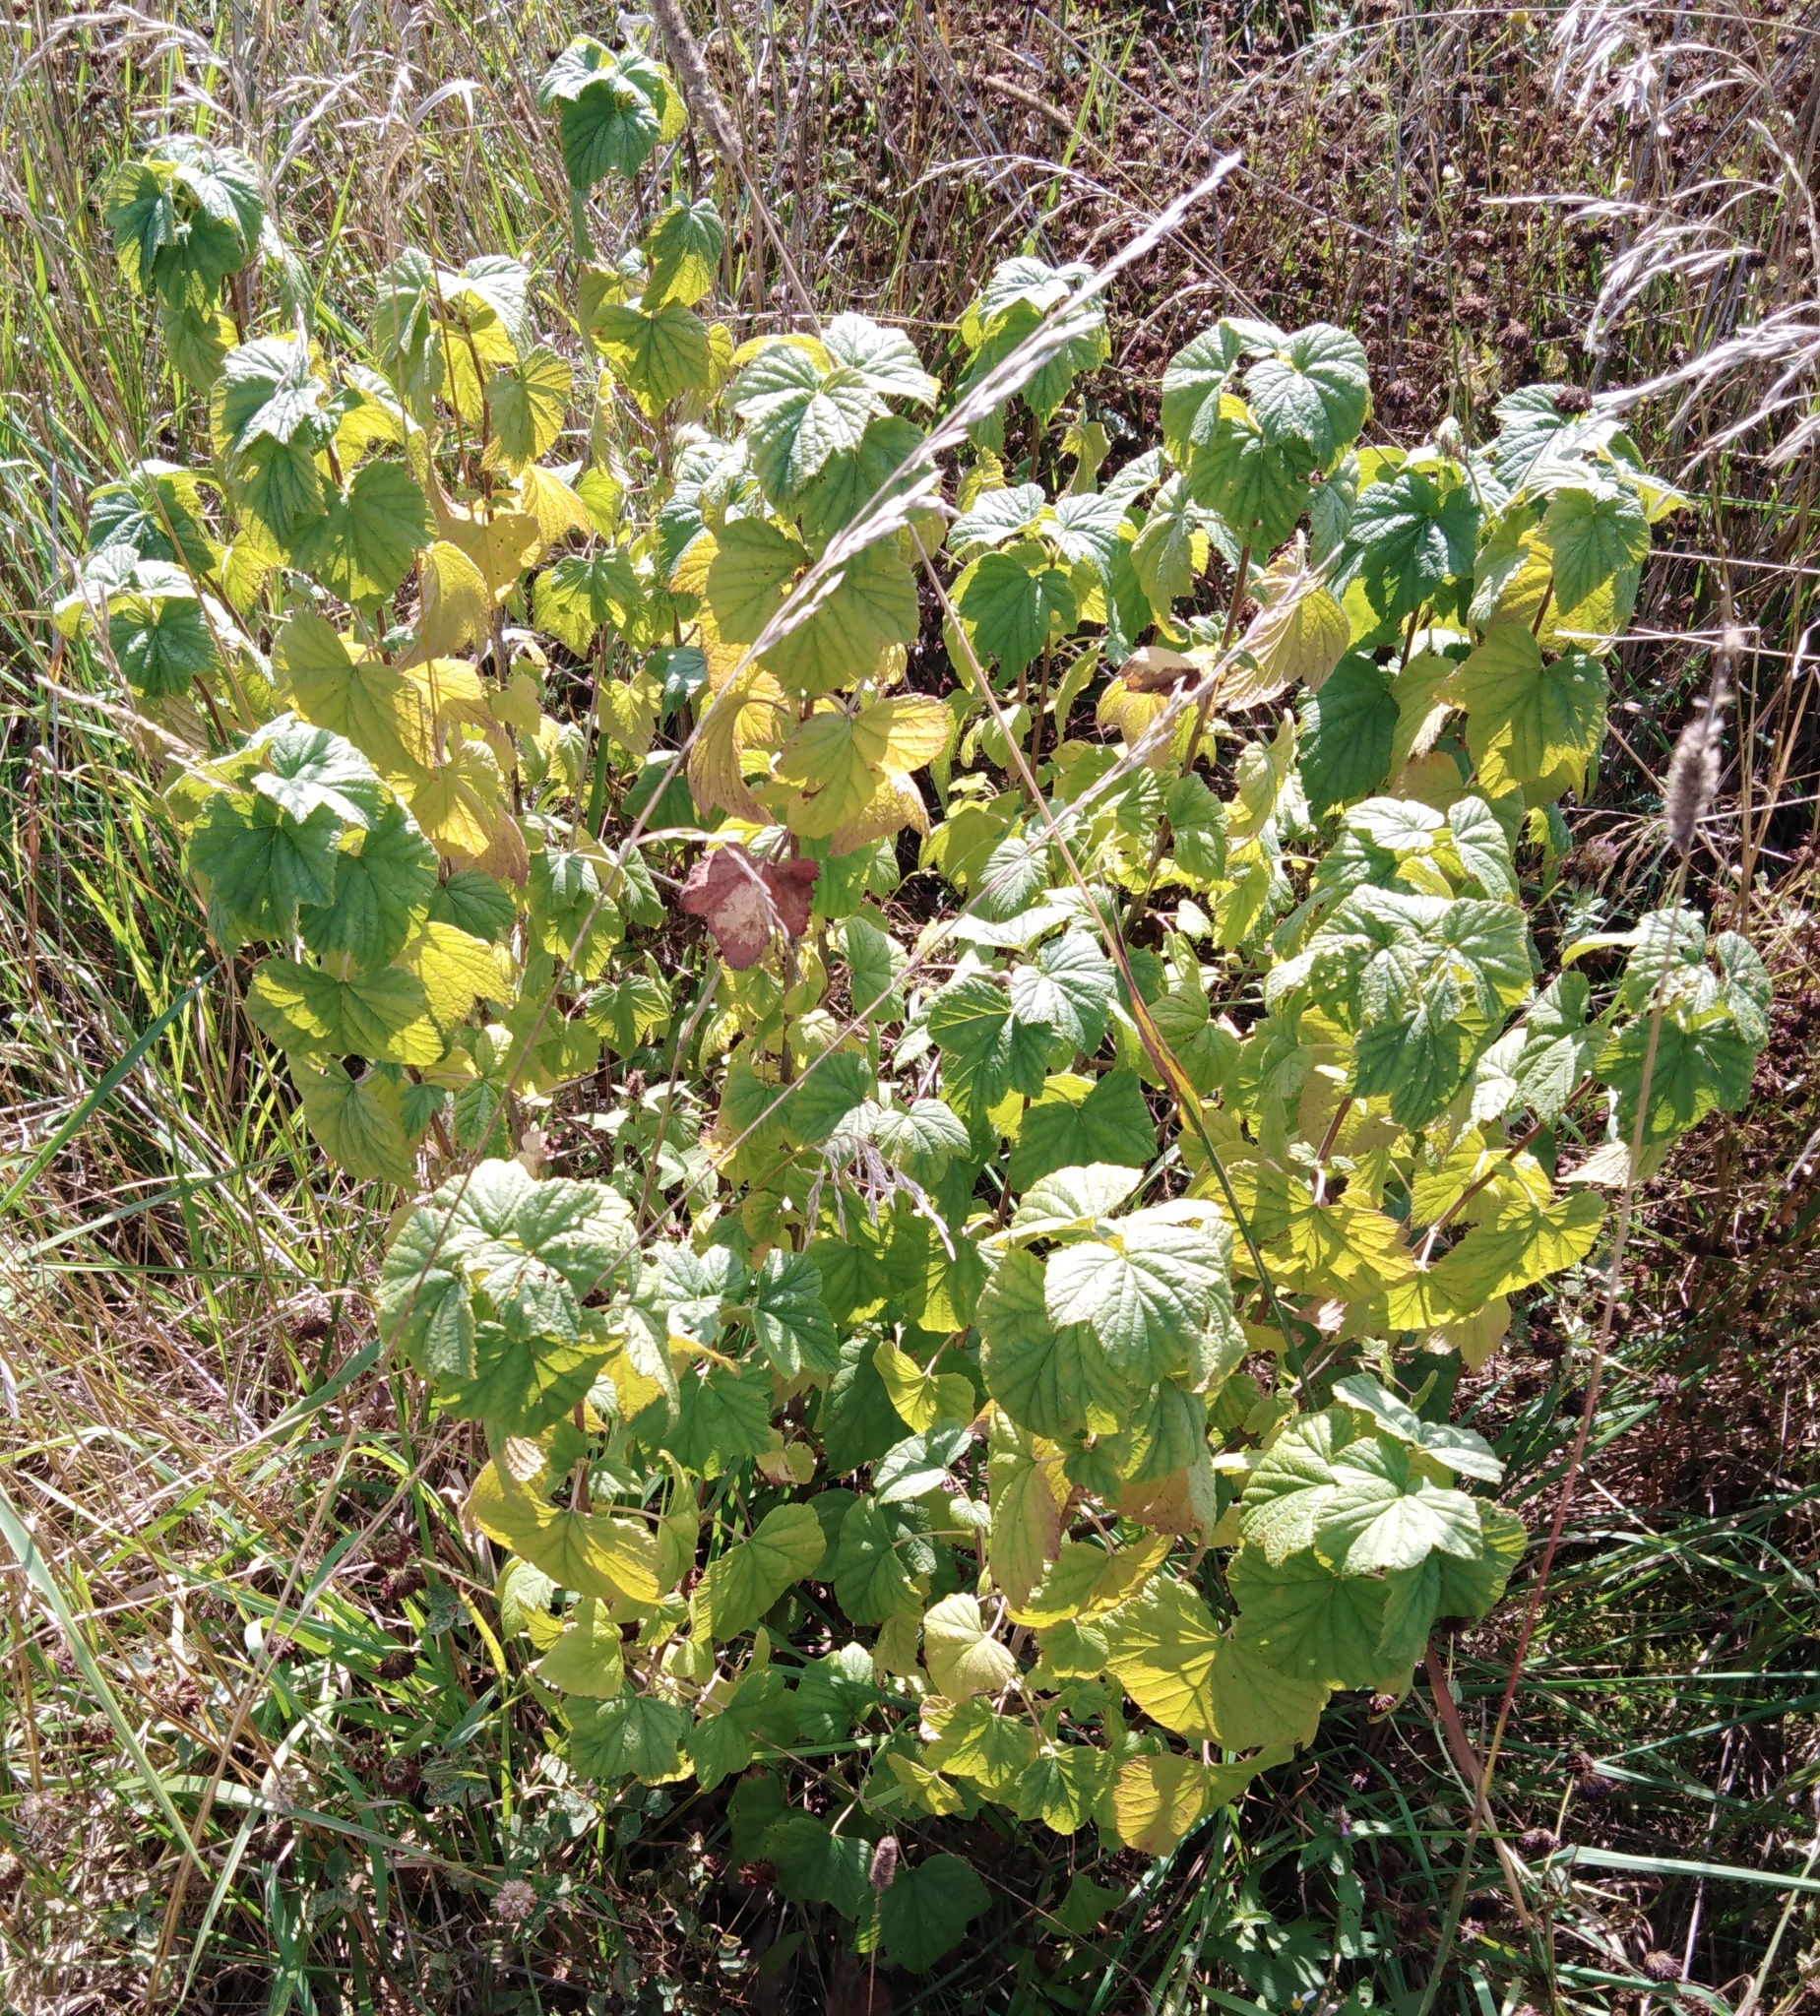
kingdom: Plantae
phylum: Tracheophyta
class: Magnoliopsida
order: Saxifragales
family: Grossulariaceae
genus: Ribes
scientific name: Ribes nigrum
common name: Black currant
